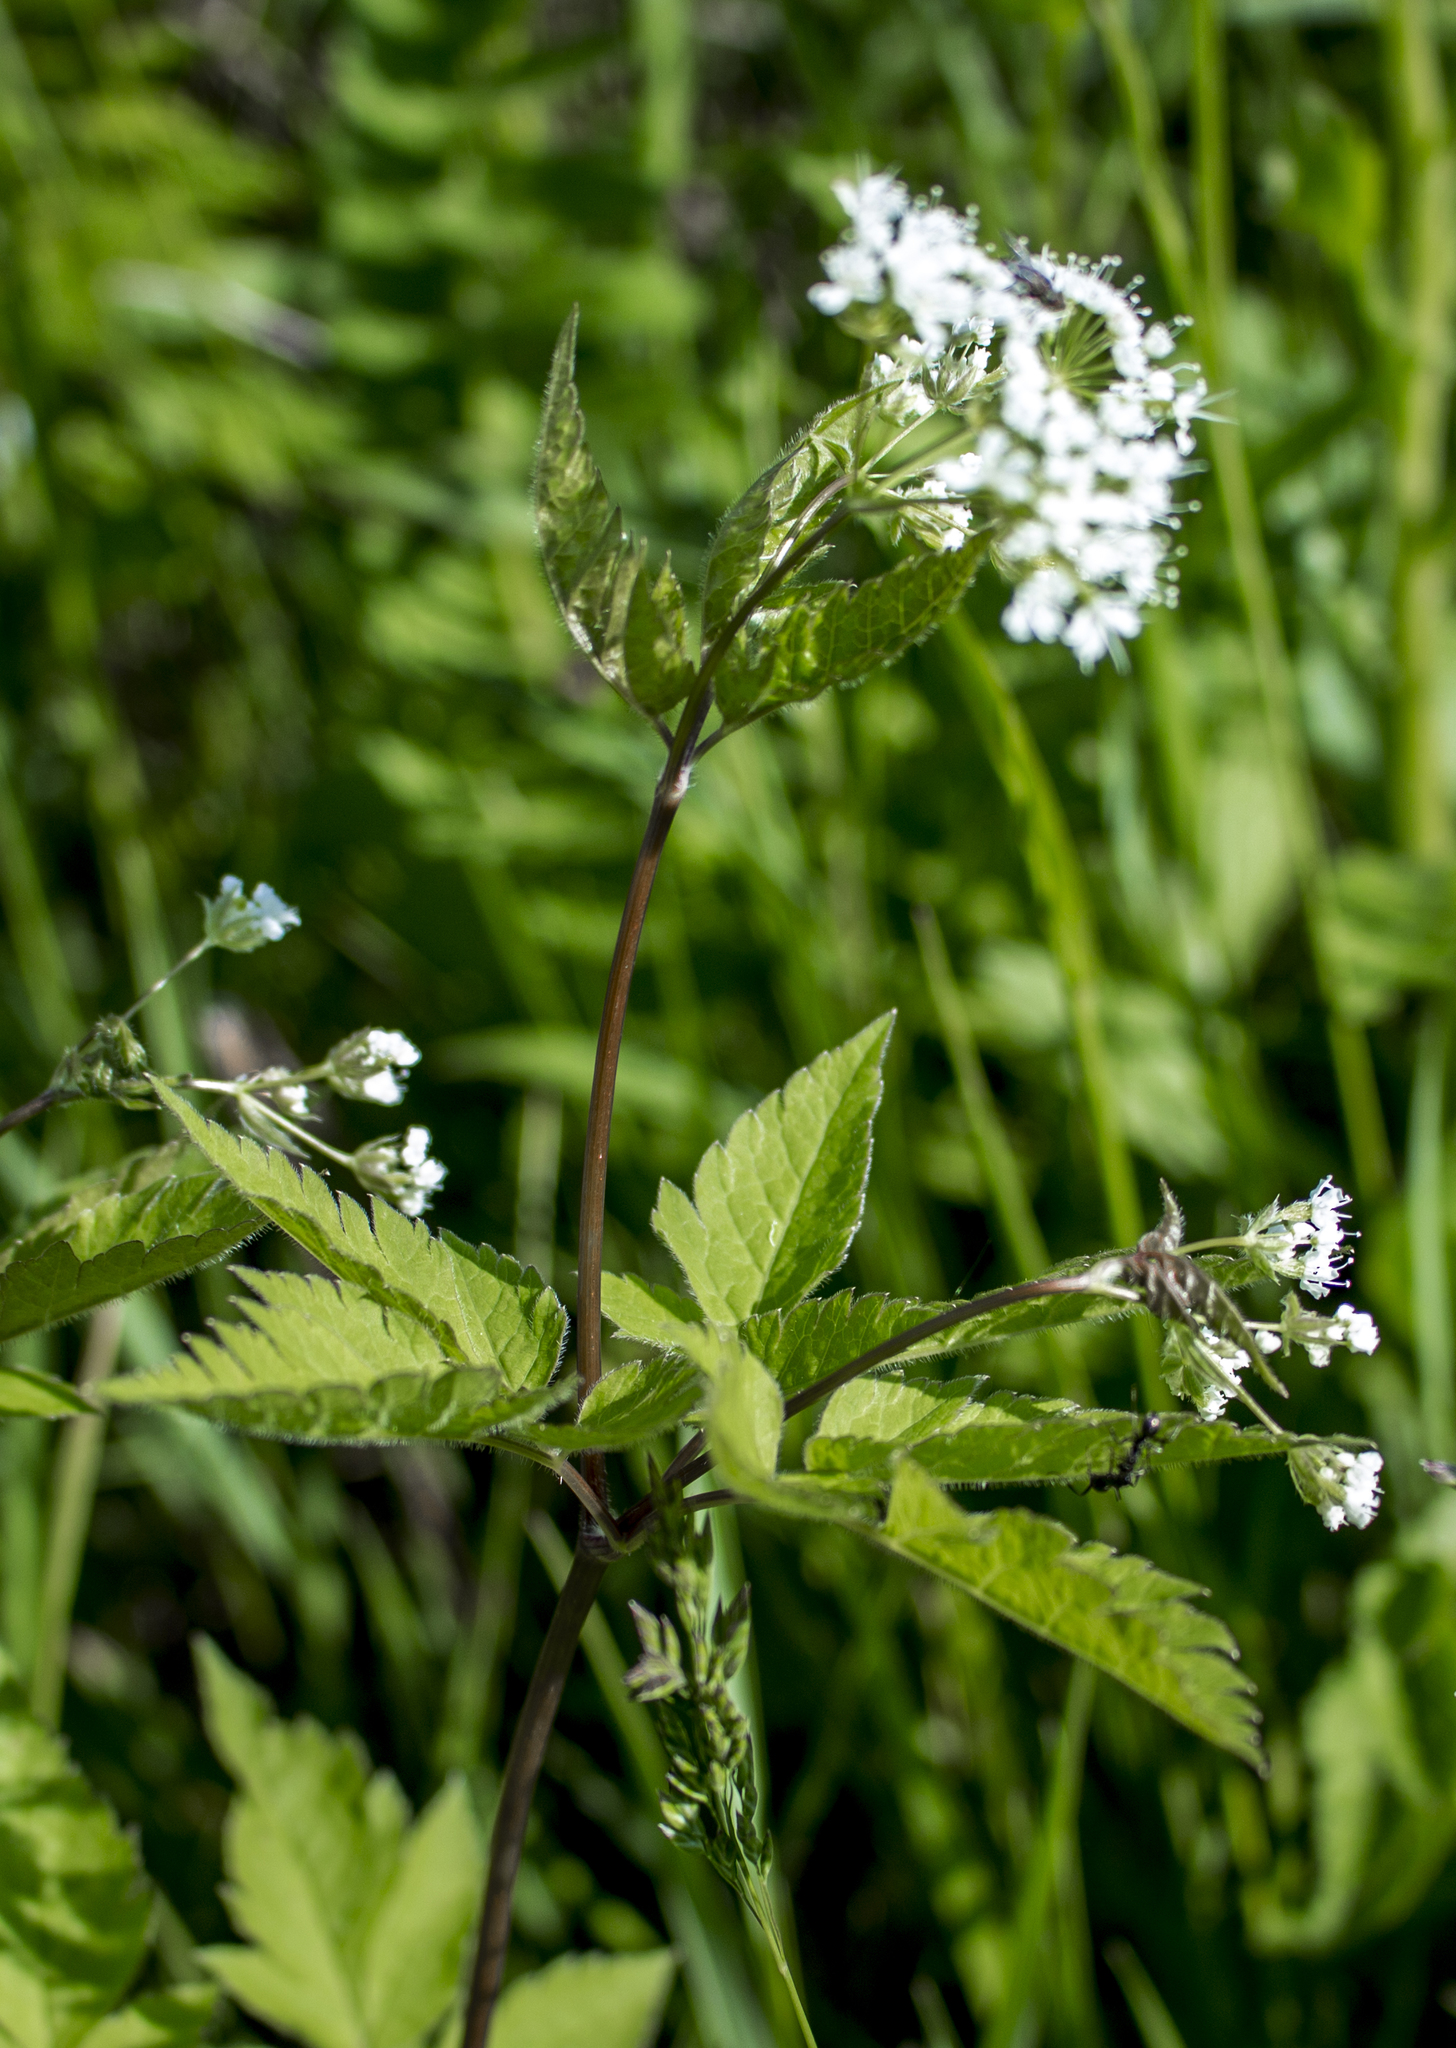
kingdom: Plantae
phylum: Tracheophyta
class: Magnoliopsida
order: Apiales
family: Apiaceae
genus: Osmorhiza
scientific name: Osmorhiza longistylis
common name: Smooth sweet cicely
